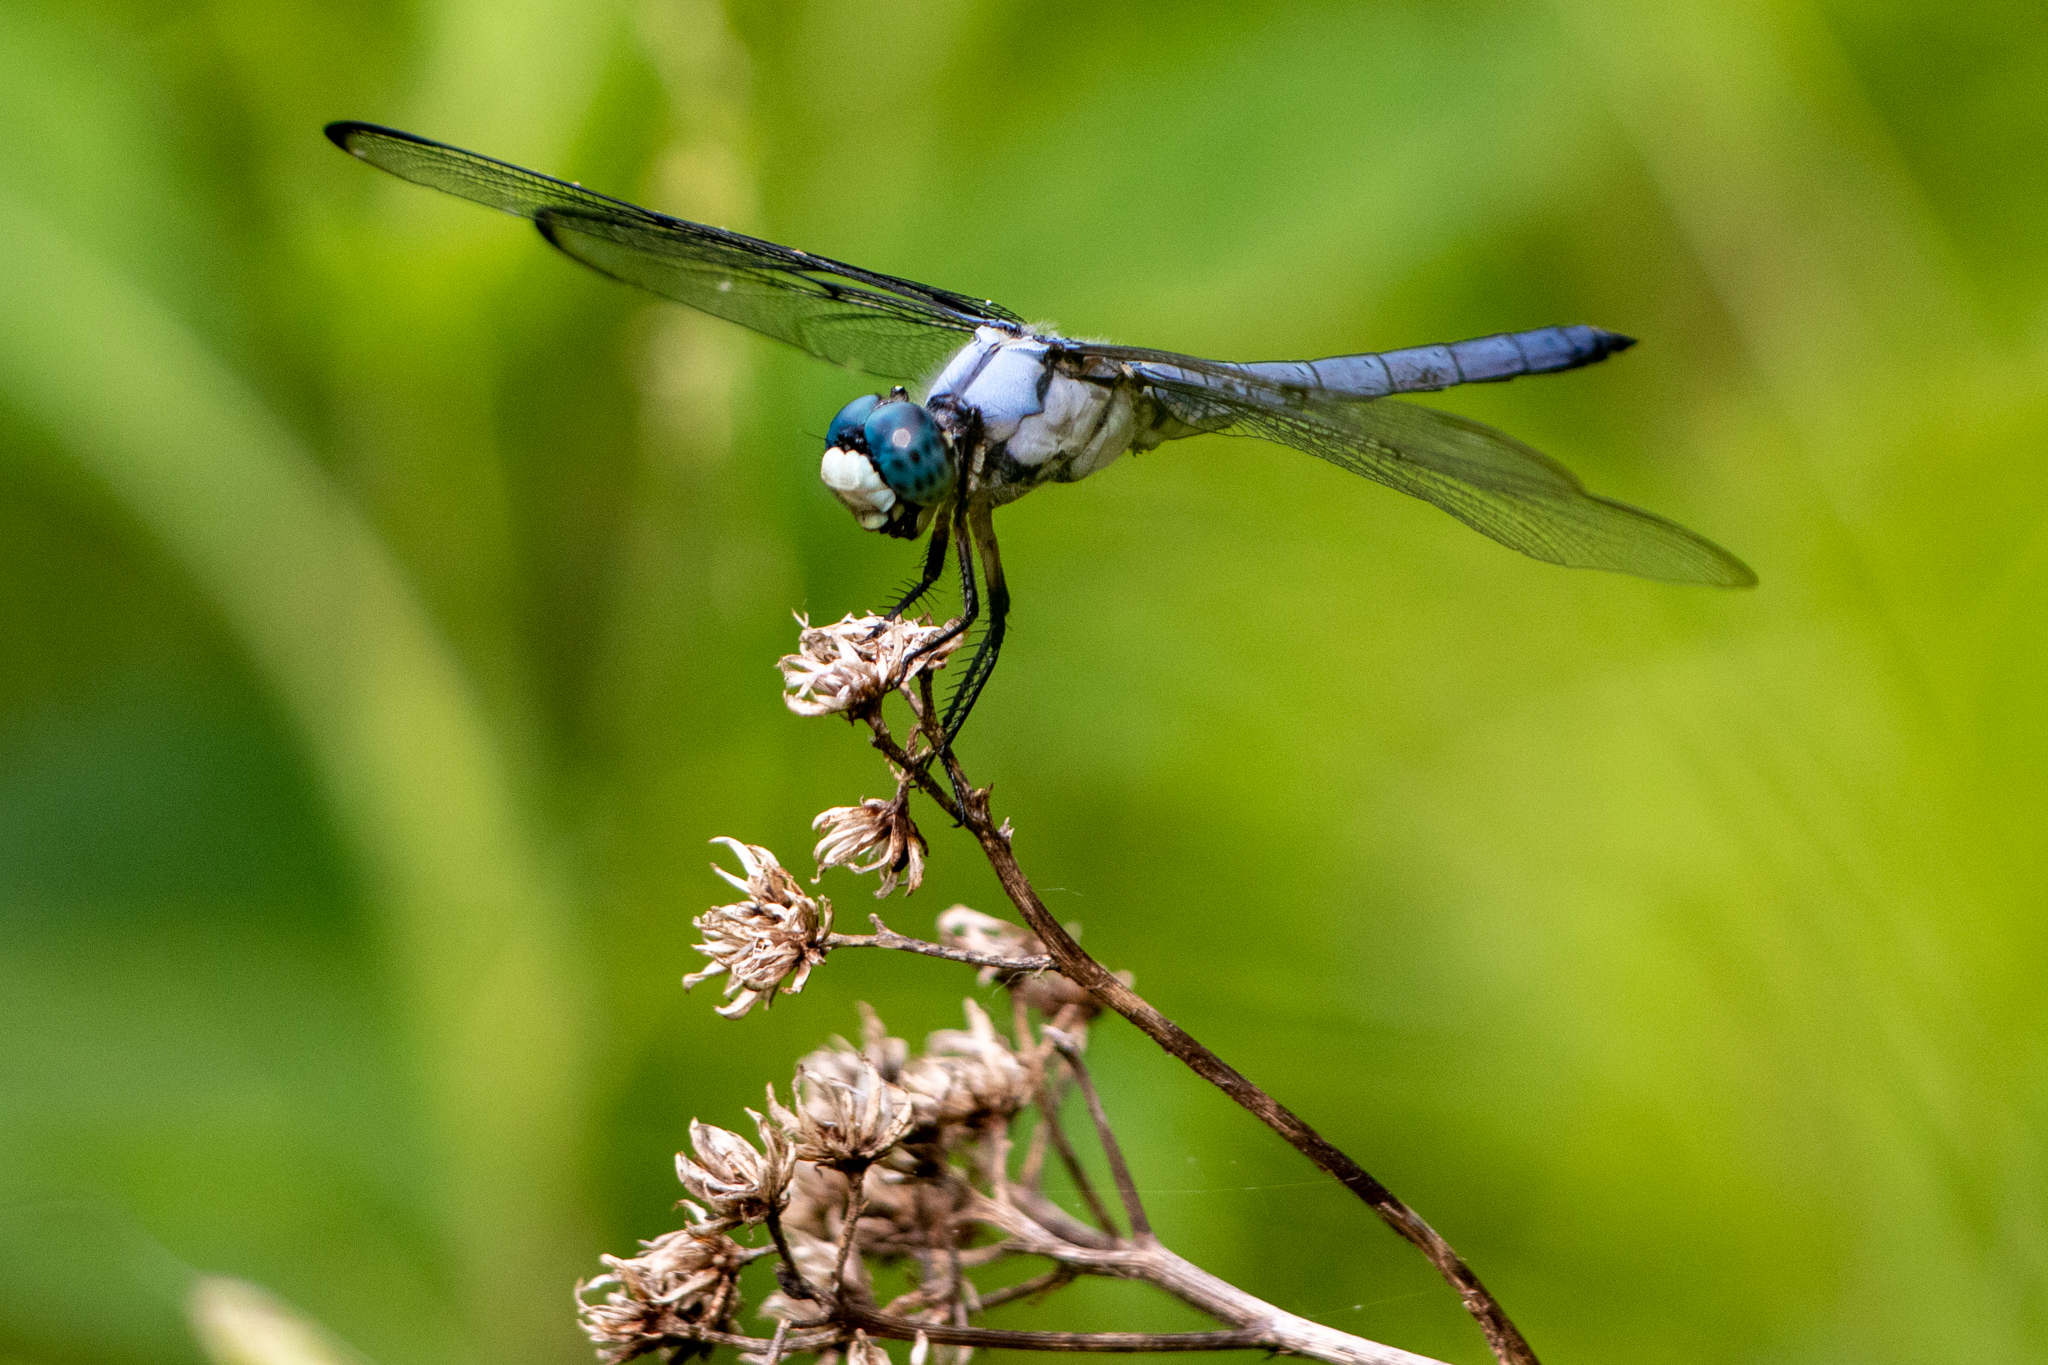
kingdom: Animalia
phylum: Arthropoda
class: Insecta
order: Odonata
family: Libellulidae
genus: Libellula
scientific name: Libellula vibrans
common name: Great blue skimmer
